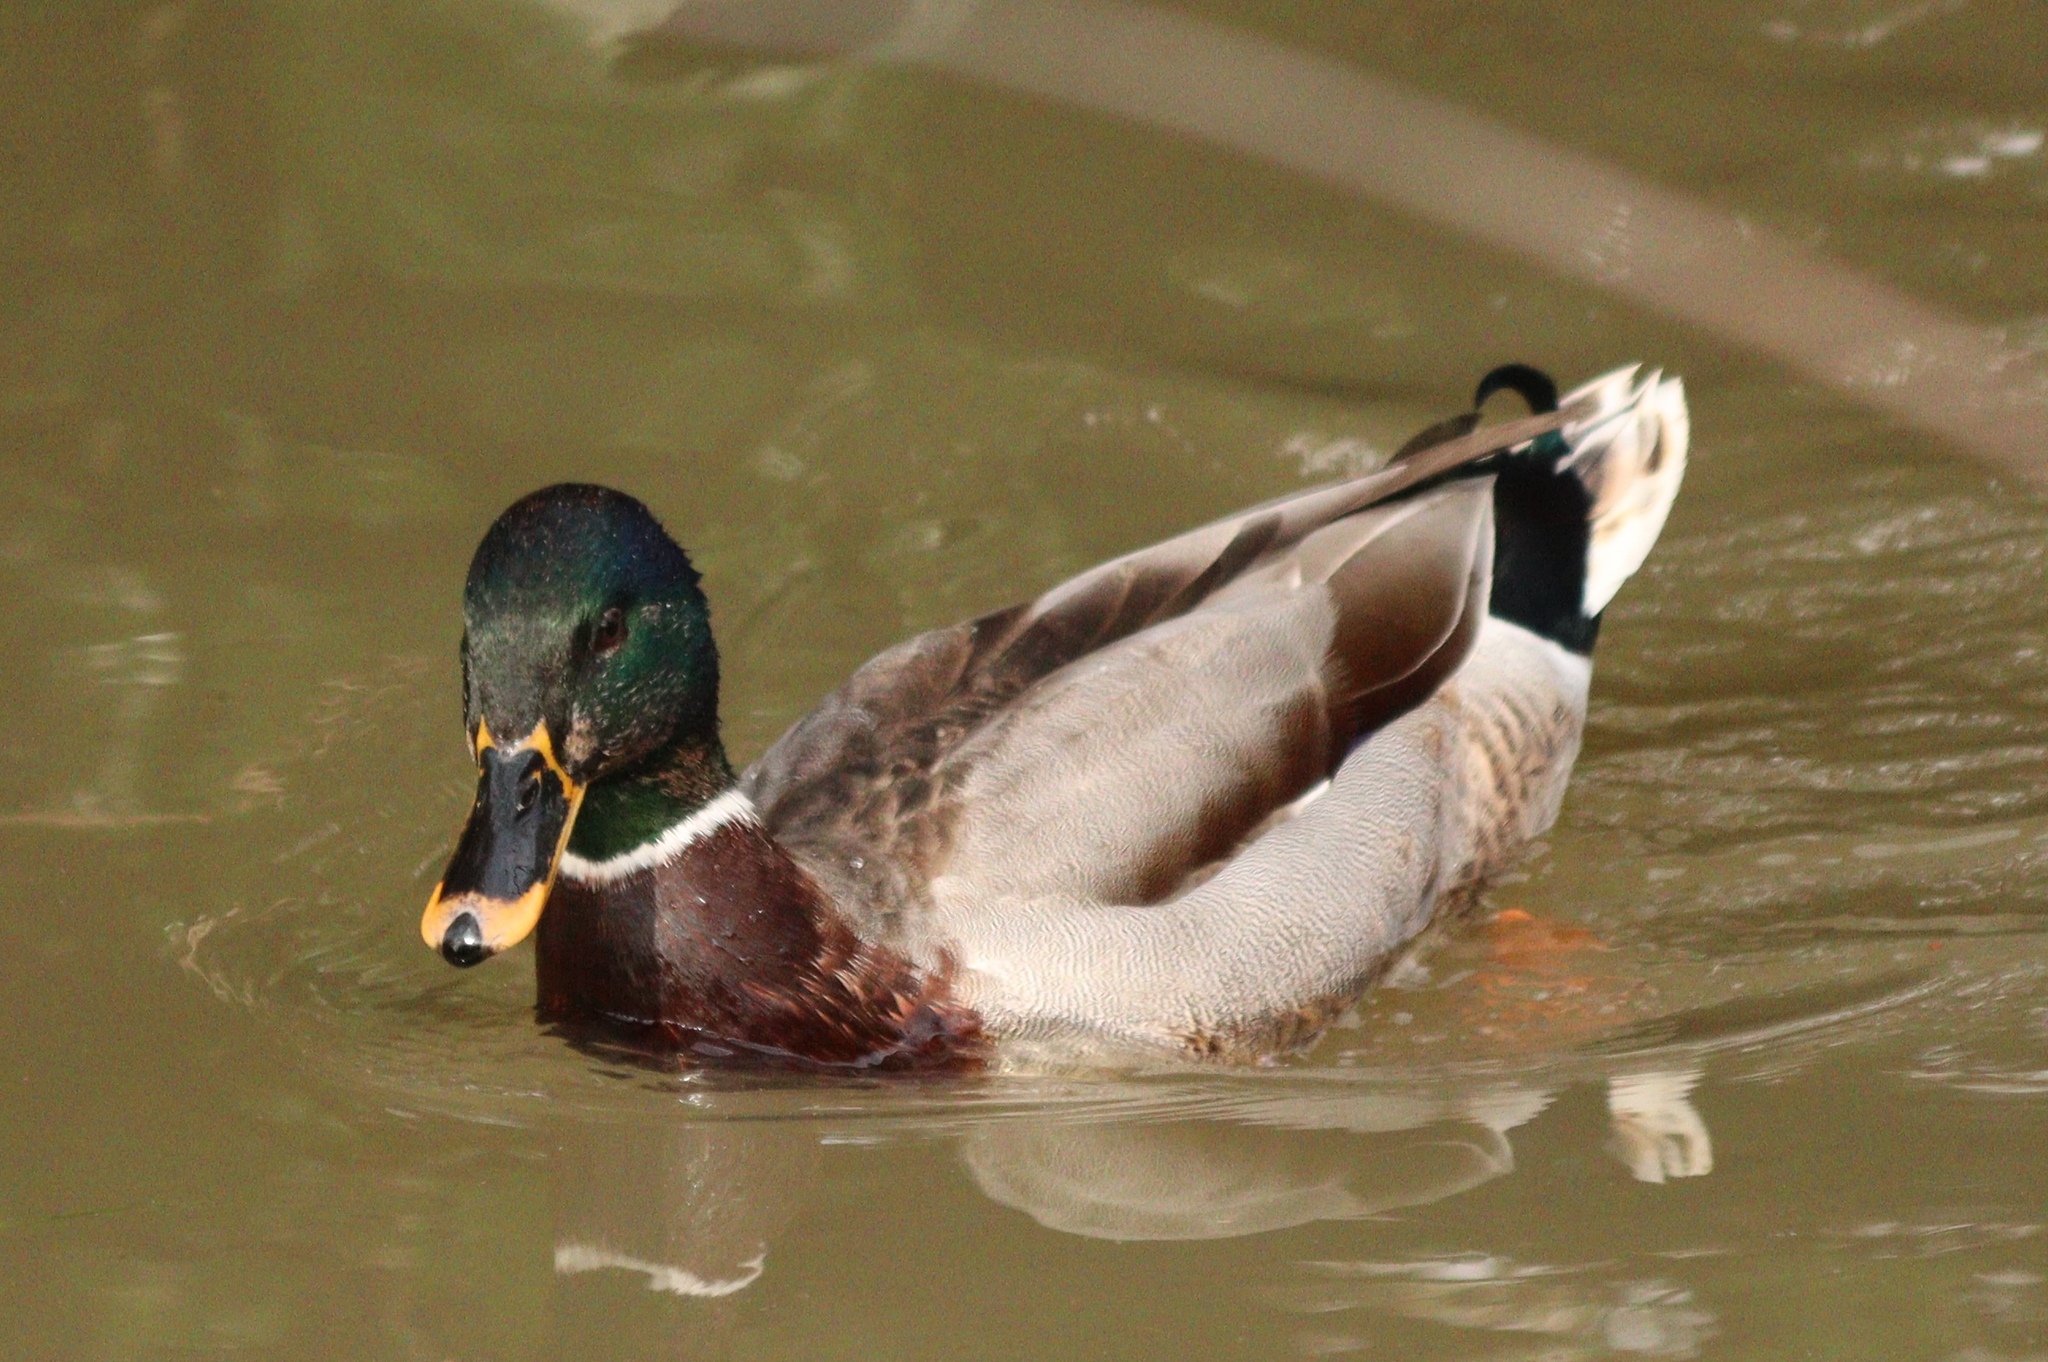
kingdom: Animalia
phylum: Chordata
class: Aves
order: Anseriformes
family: Anatidae
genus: Anas
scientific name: Anas platyrhynchos
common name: Mallard
